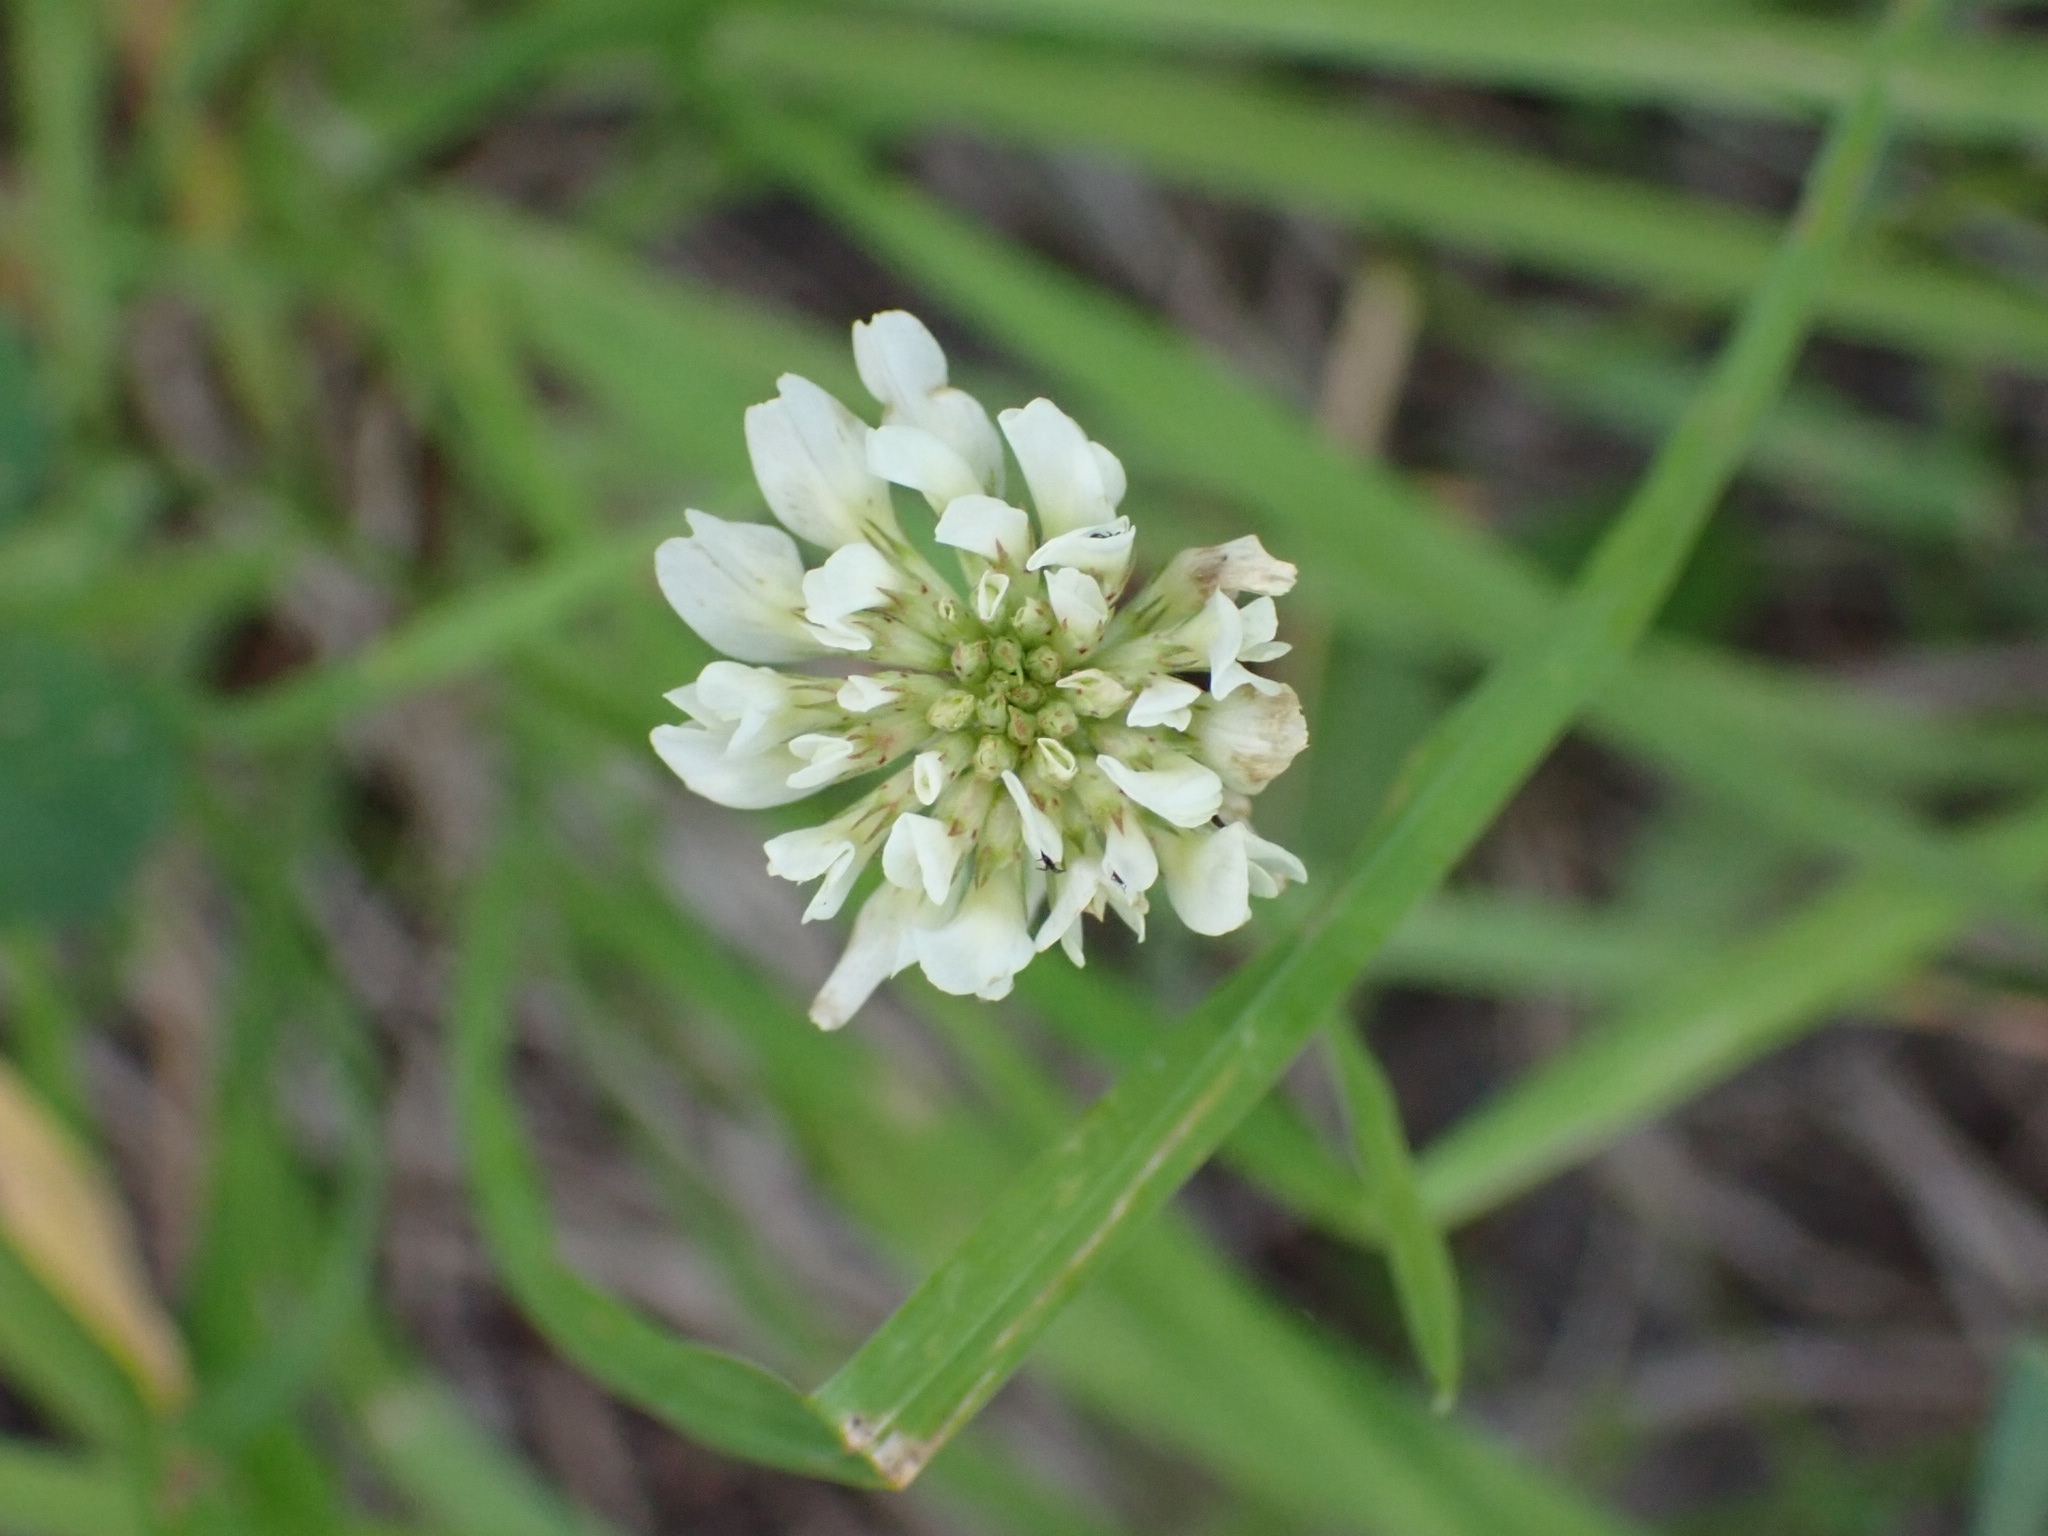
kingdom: Plantae
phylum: Tracheophyta
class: Magnoliopsida
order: Fabales
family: Fabaceae
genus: Trifolium
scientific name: Trifolium repens
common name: White clover
